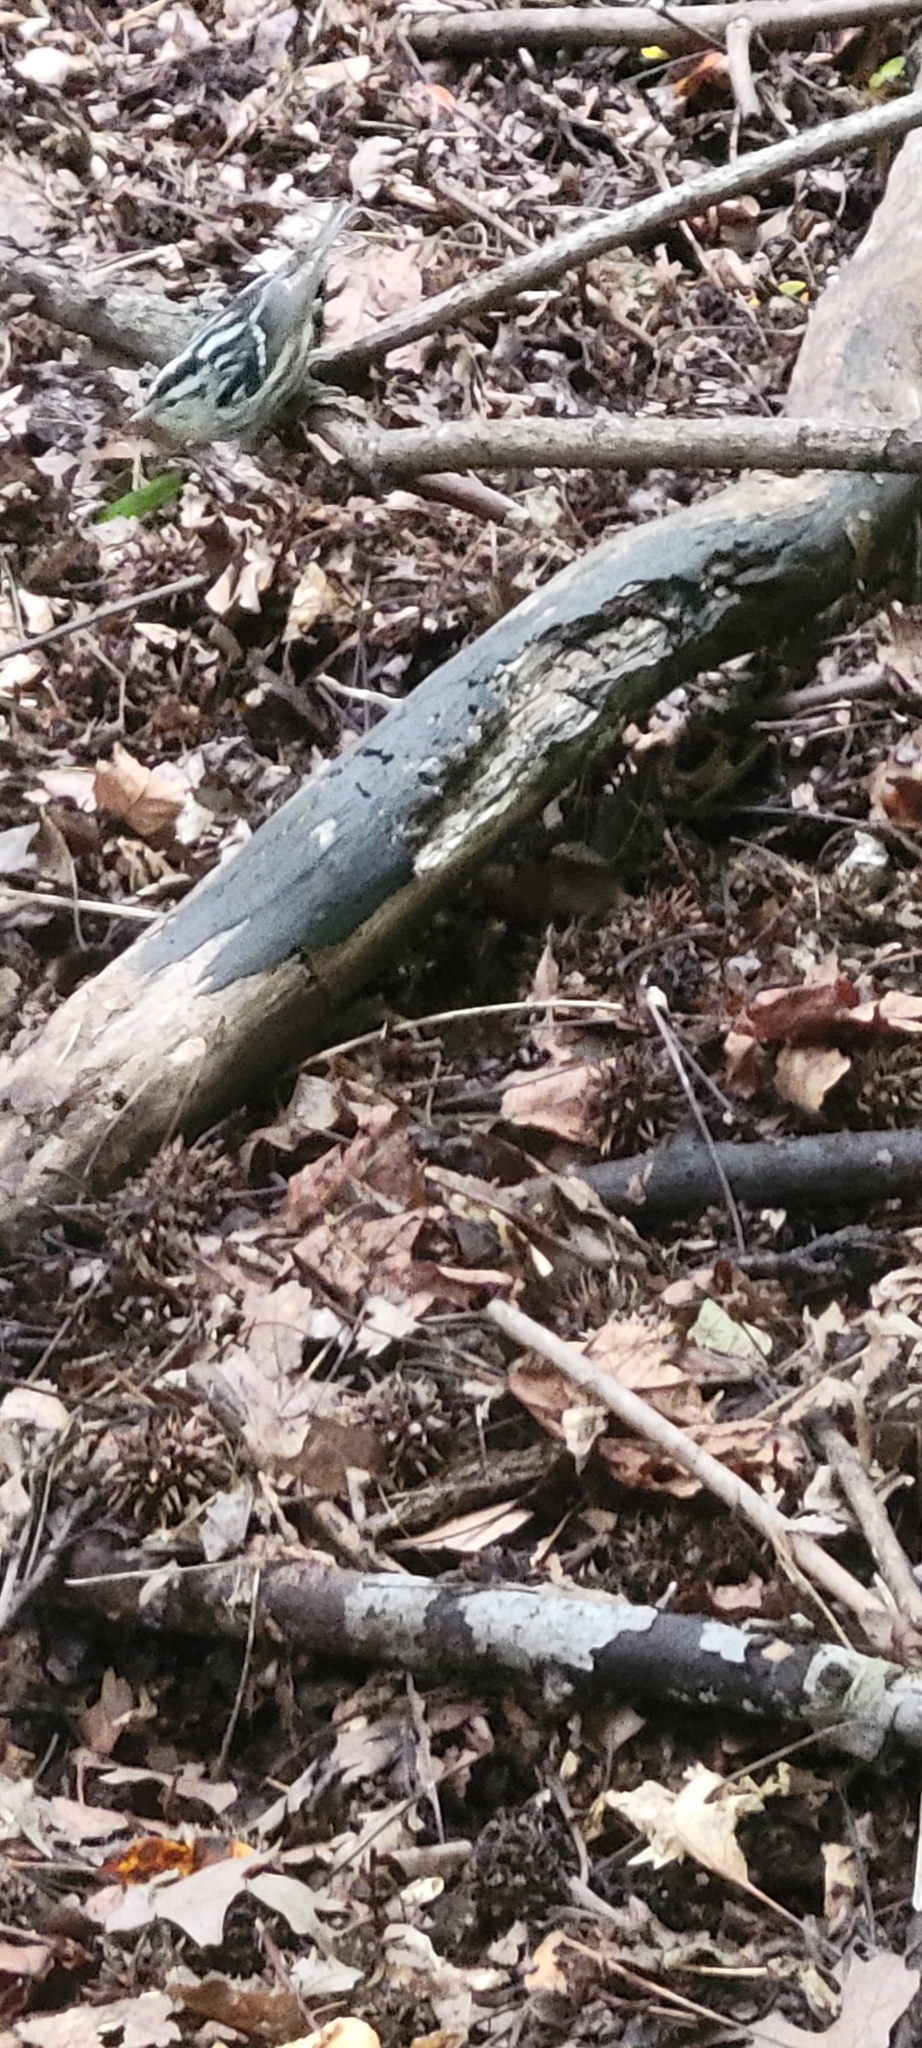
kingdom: Animalia
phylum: Chordata
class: Aves
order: Passeriformes
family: Parulidae
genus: Mniotilta
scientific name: Mniotilta varia
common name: Black-and-white warbler
